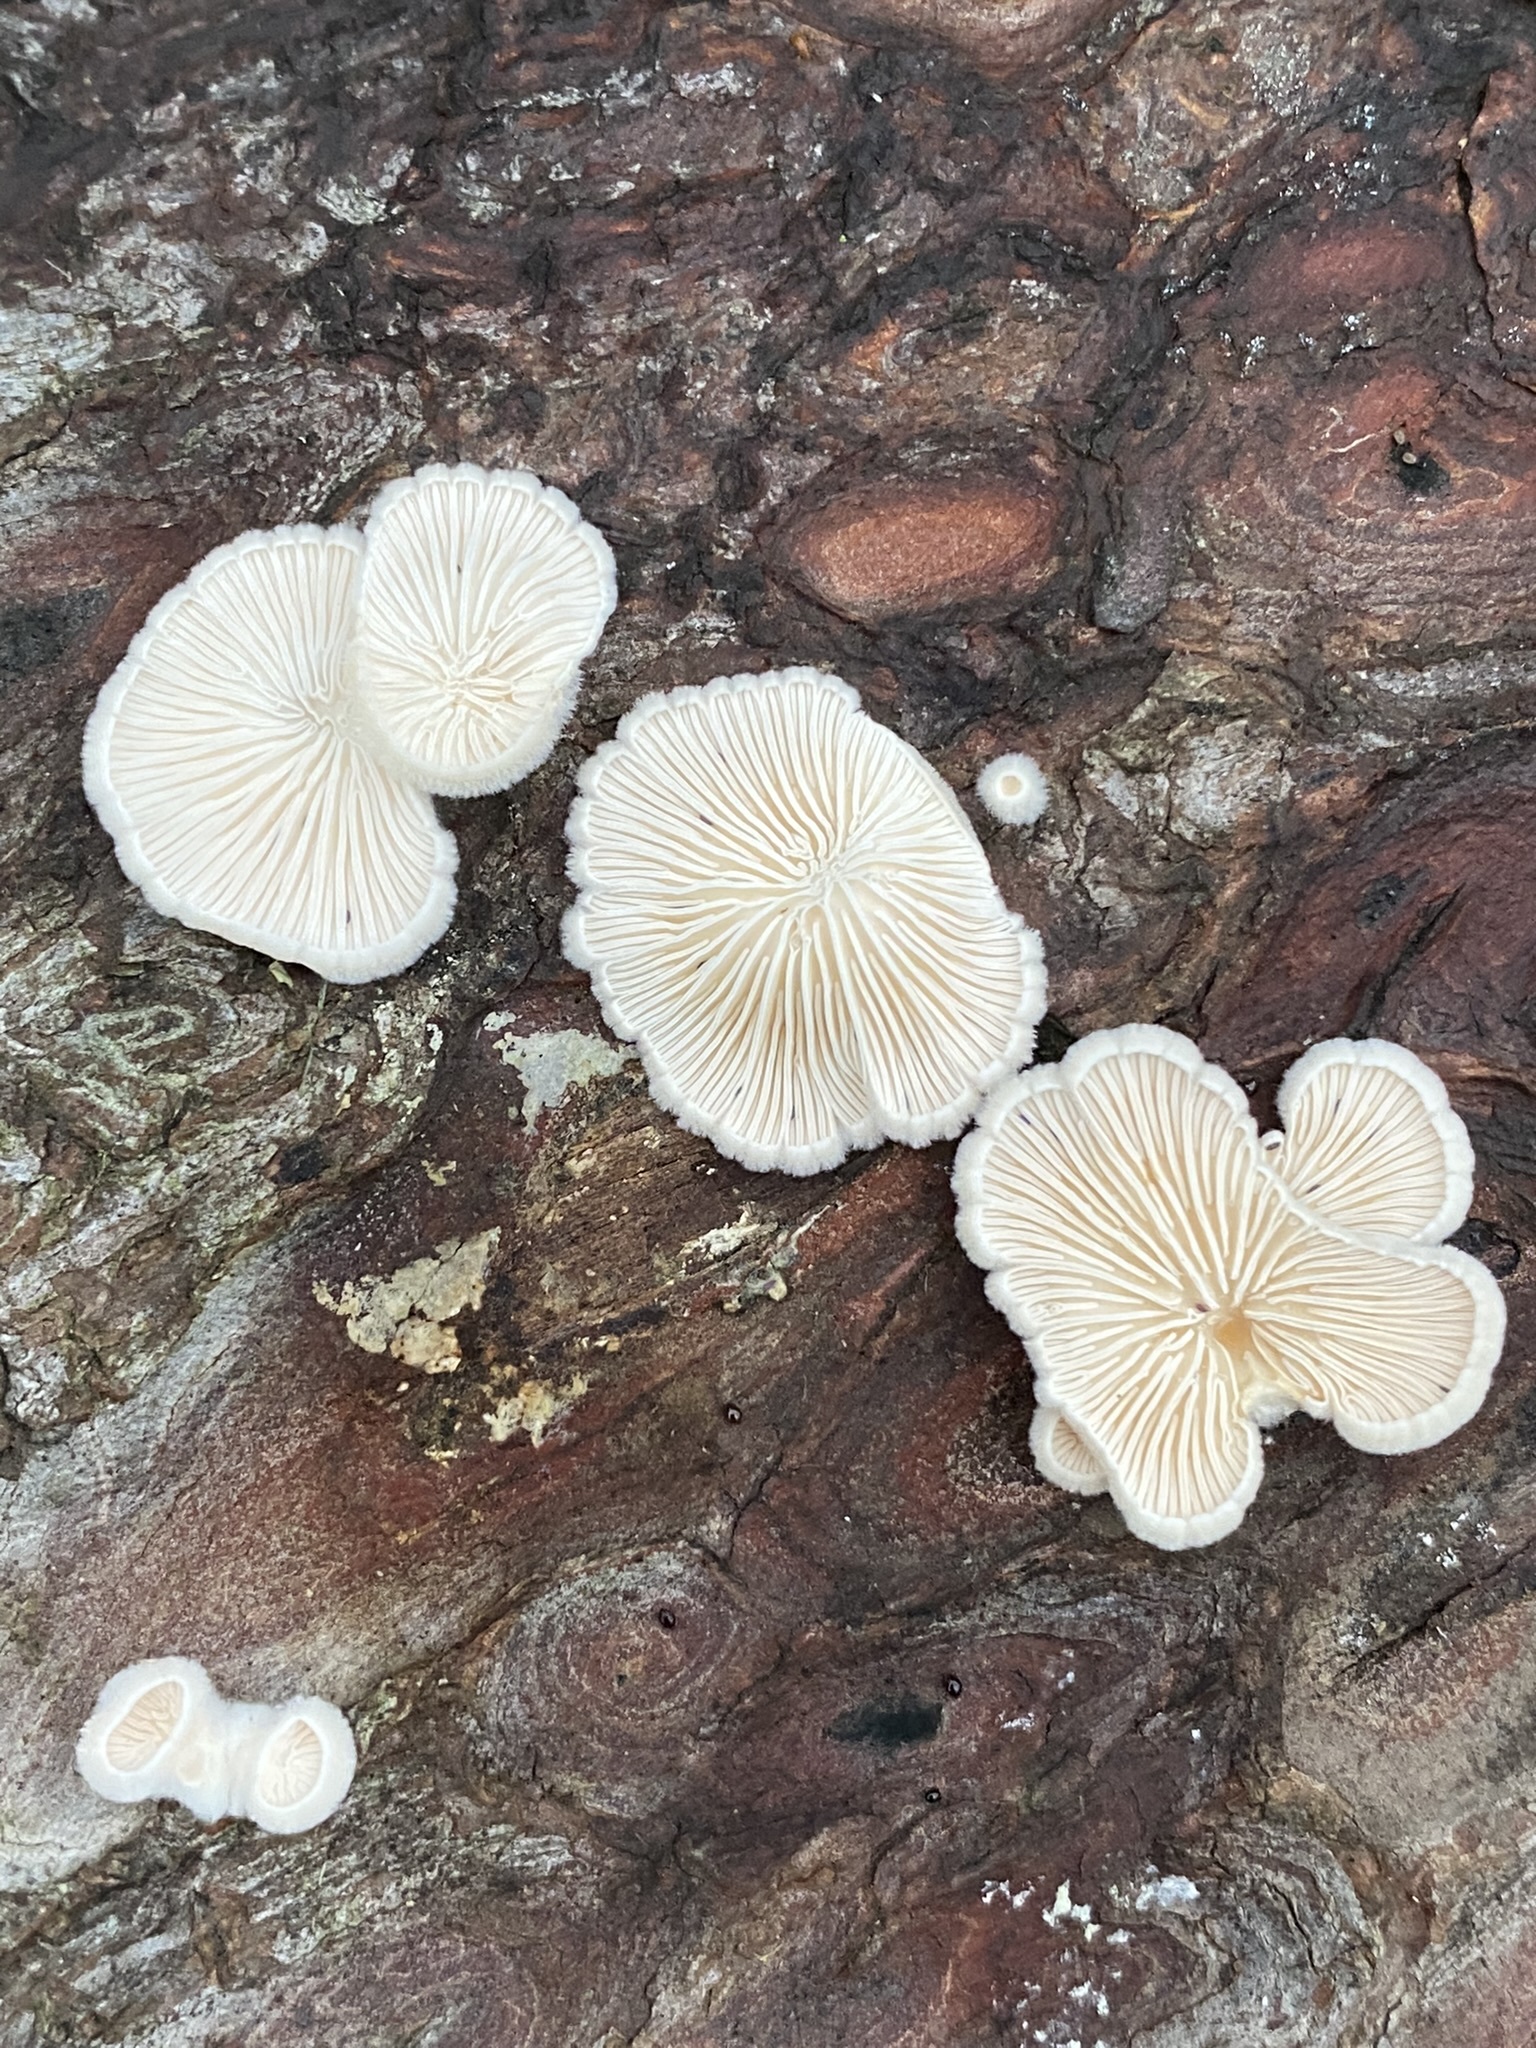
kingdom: Fungi
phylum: Basidiomycota
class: Agaricomycetes
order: Agaricales
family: Schizophyllaceae
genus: Schizophyllum
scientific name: Schizophyllum commune
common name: Common porecrust
